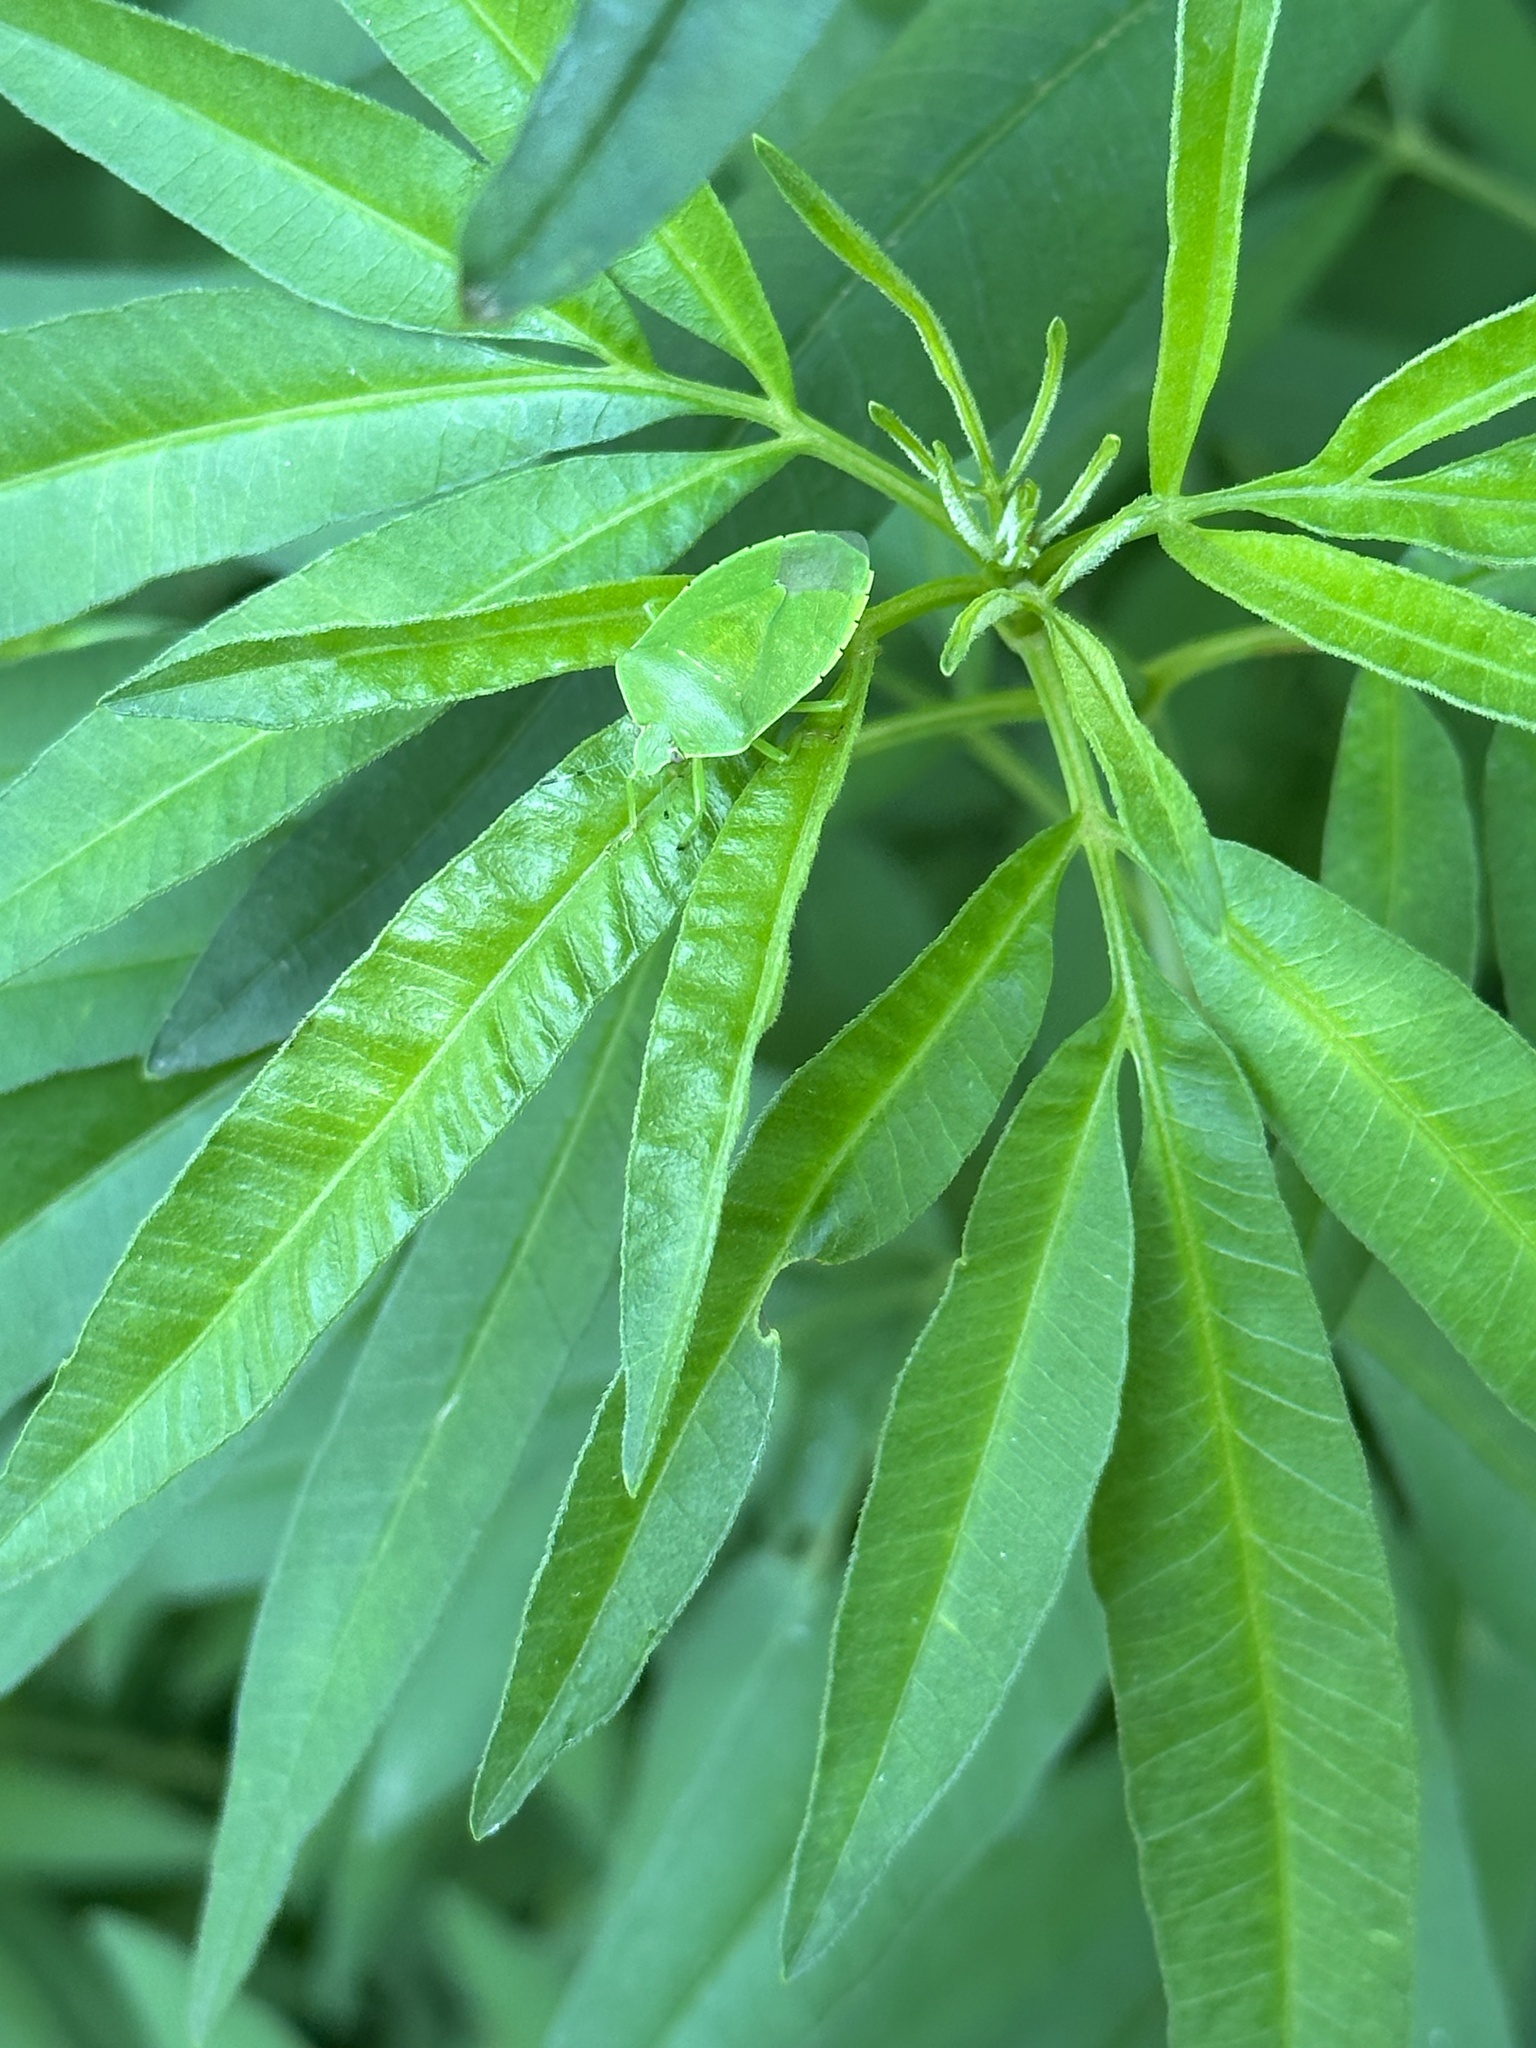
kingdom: Animalia
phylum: Arthropoda
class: Insecta
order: Hemiptera
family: Pentatomidae
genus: Chinavia
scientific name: Chinavia hilaris
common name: Green stink bug
